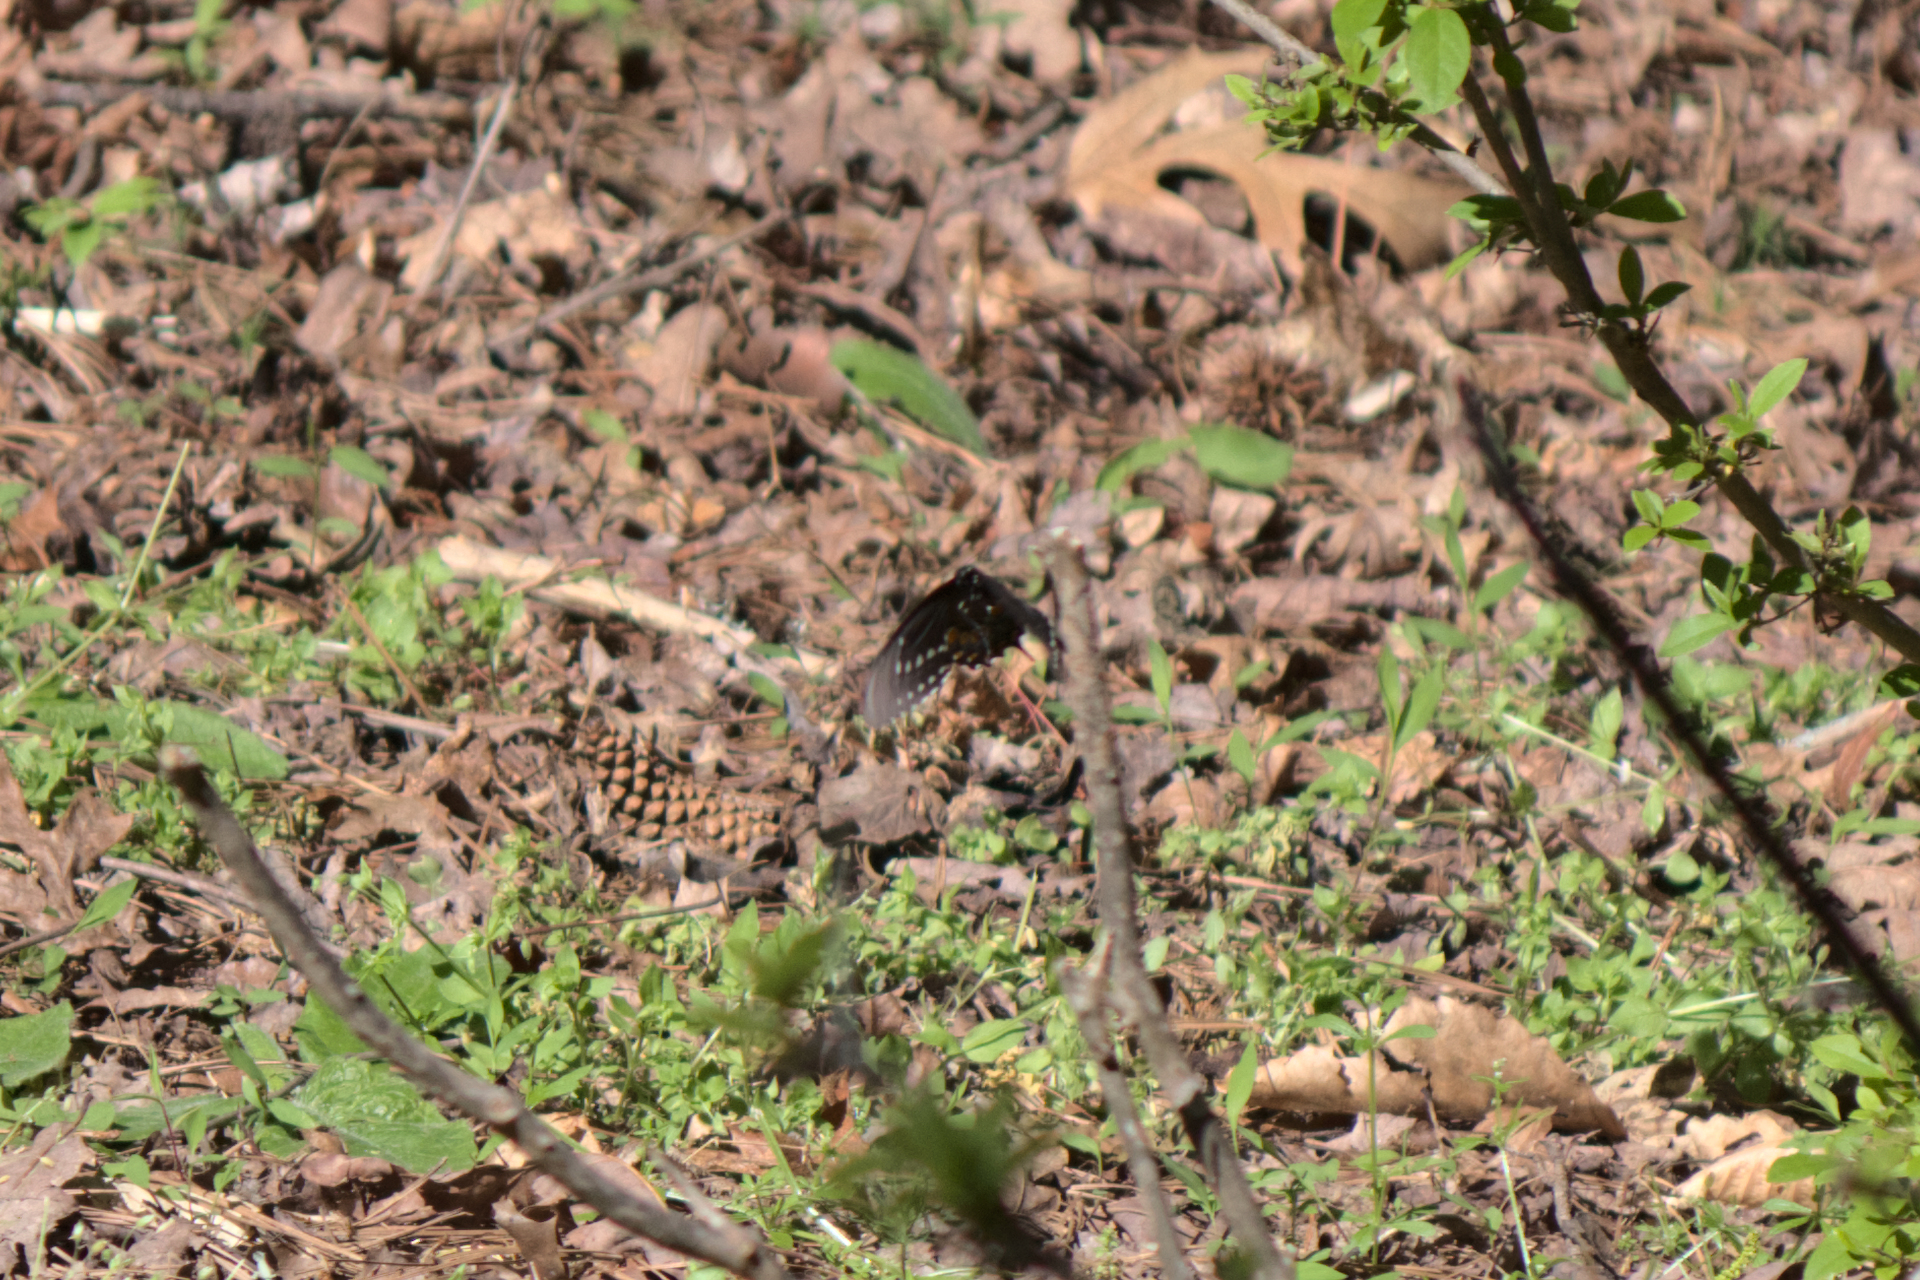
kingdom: Animalia
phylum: Arthropoda
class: Insecta
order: Lepidoptera
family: Papilionidae
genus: Papilio
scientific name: Papilio troilus
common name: Spicebush swallowtail
